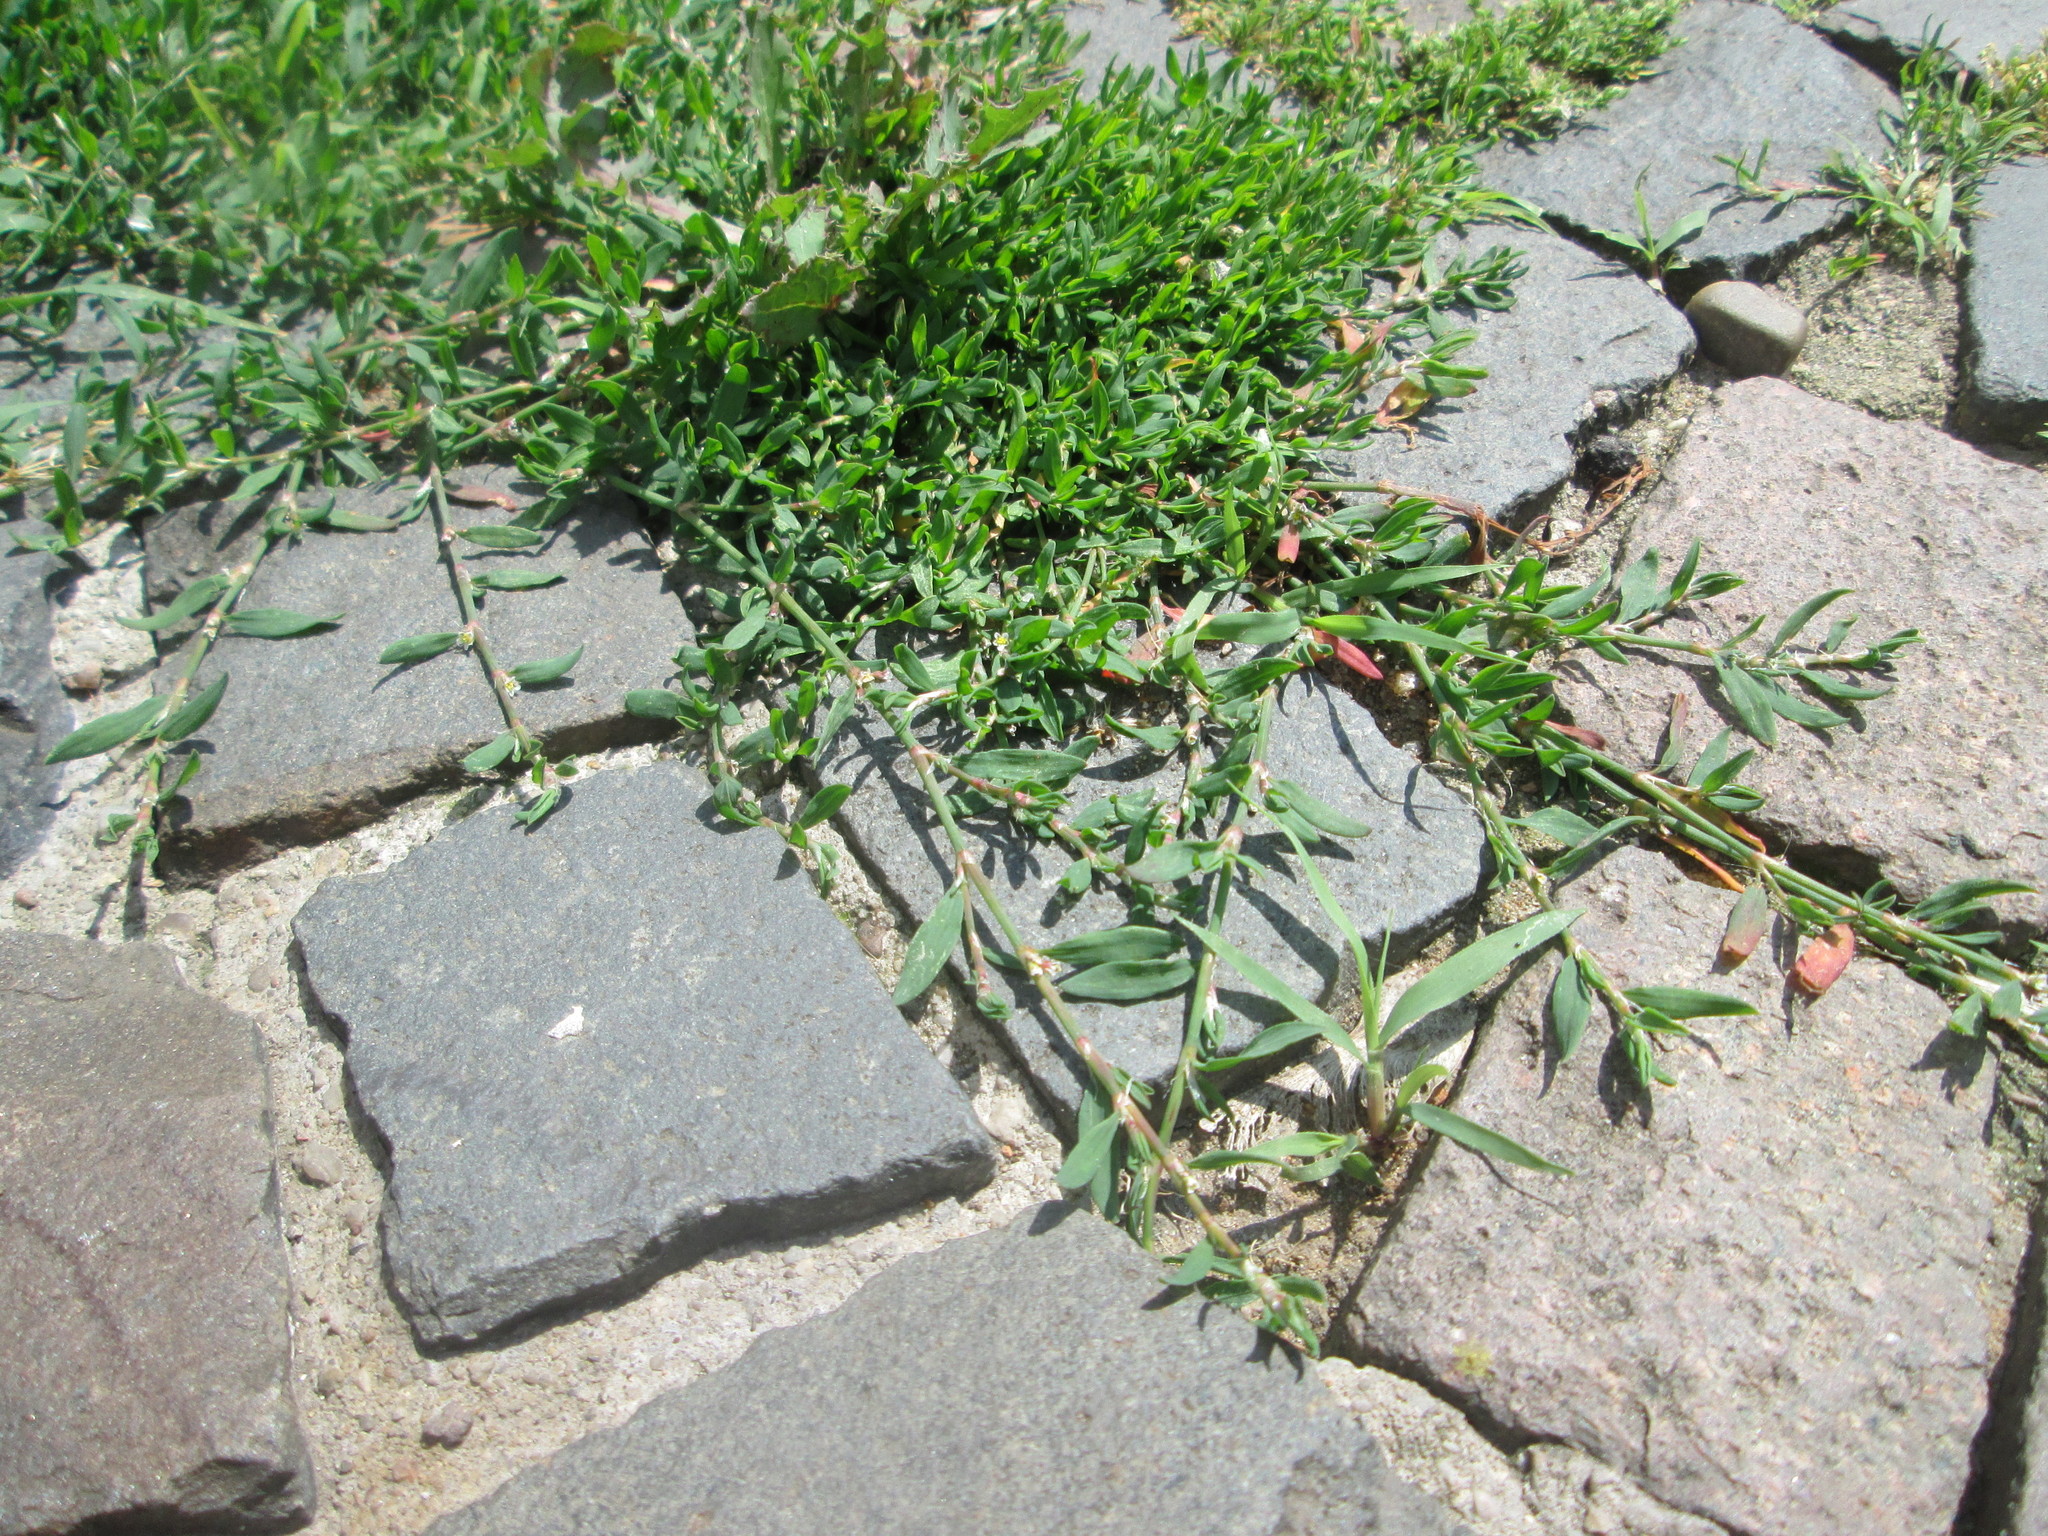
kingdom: Plantae
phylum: Tracheophyta
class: Magnoliopsida
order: Caryophyllales
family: Polygonaceae
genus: Polygonum
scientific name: Polygonum aviculare
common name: Prostrate knotweed
